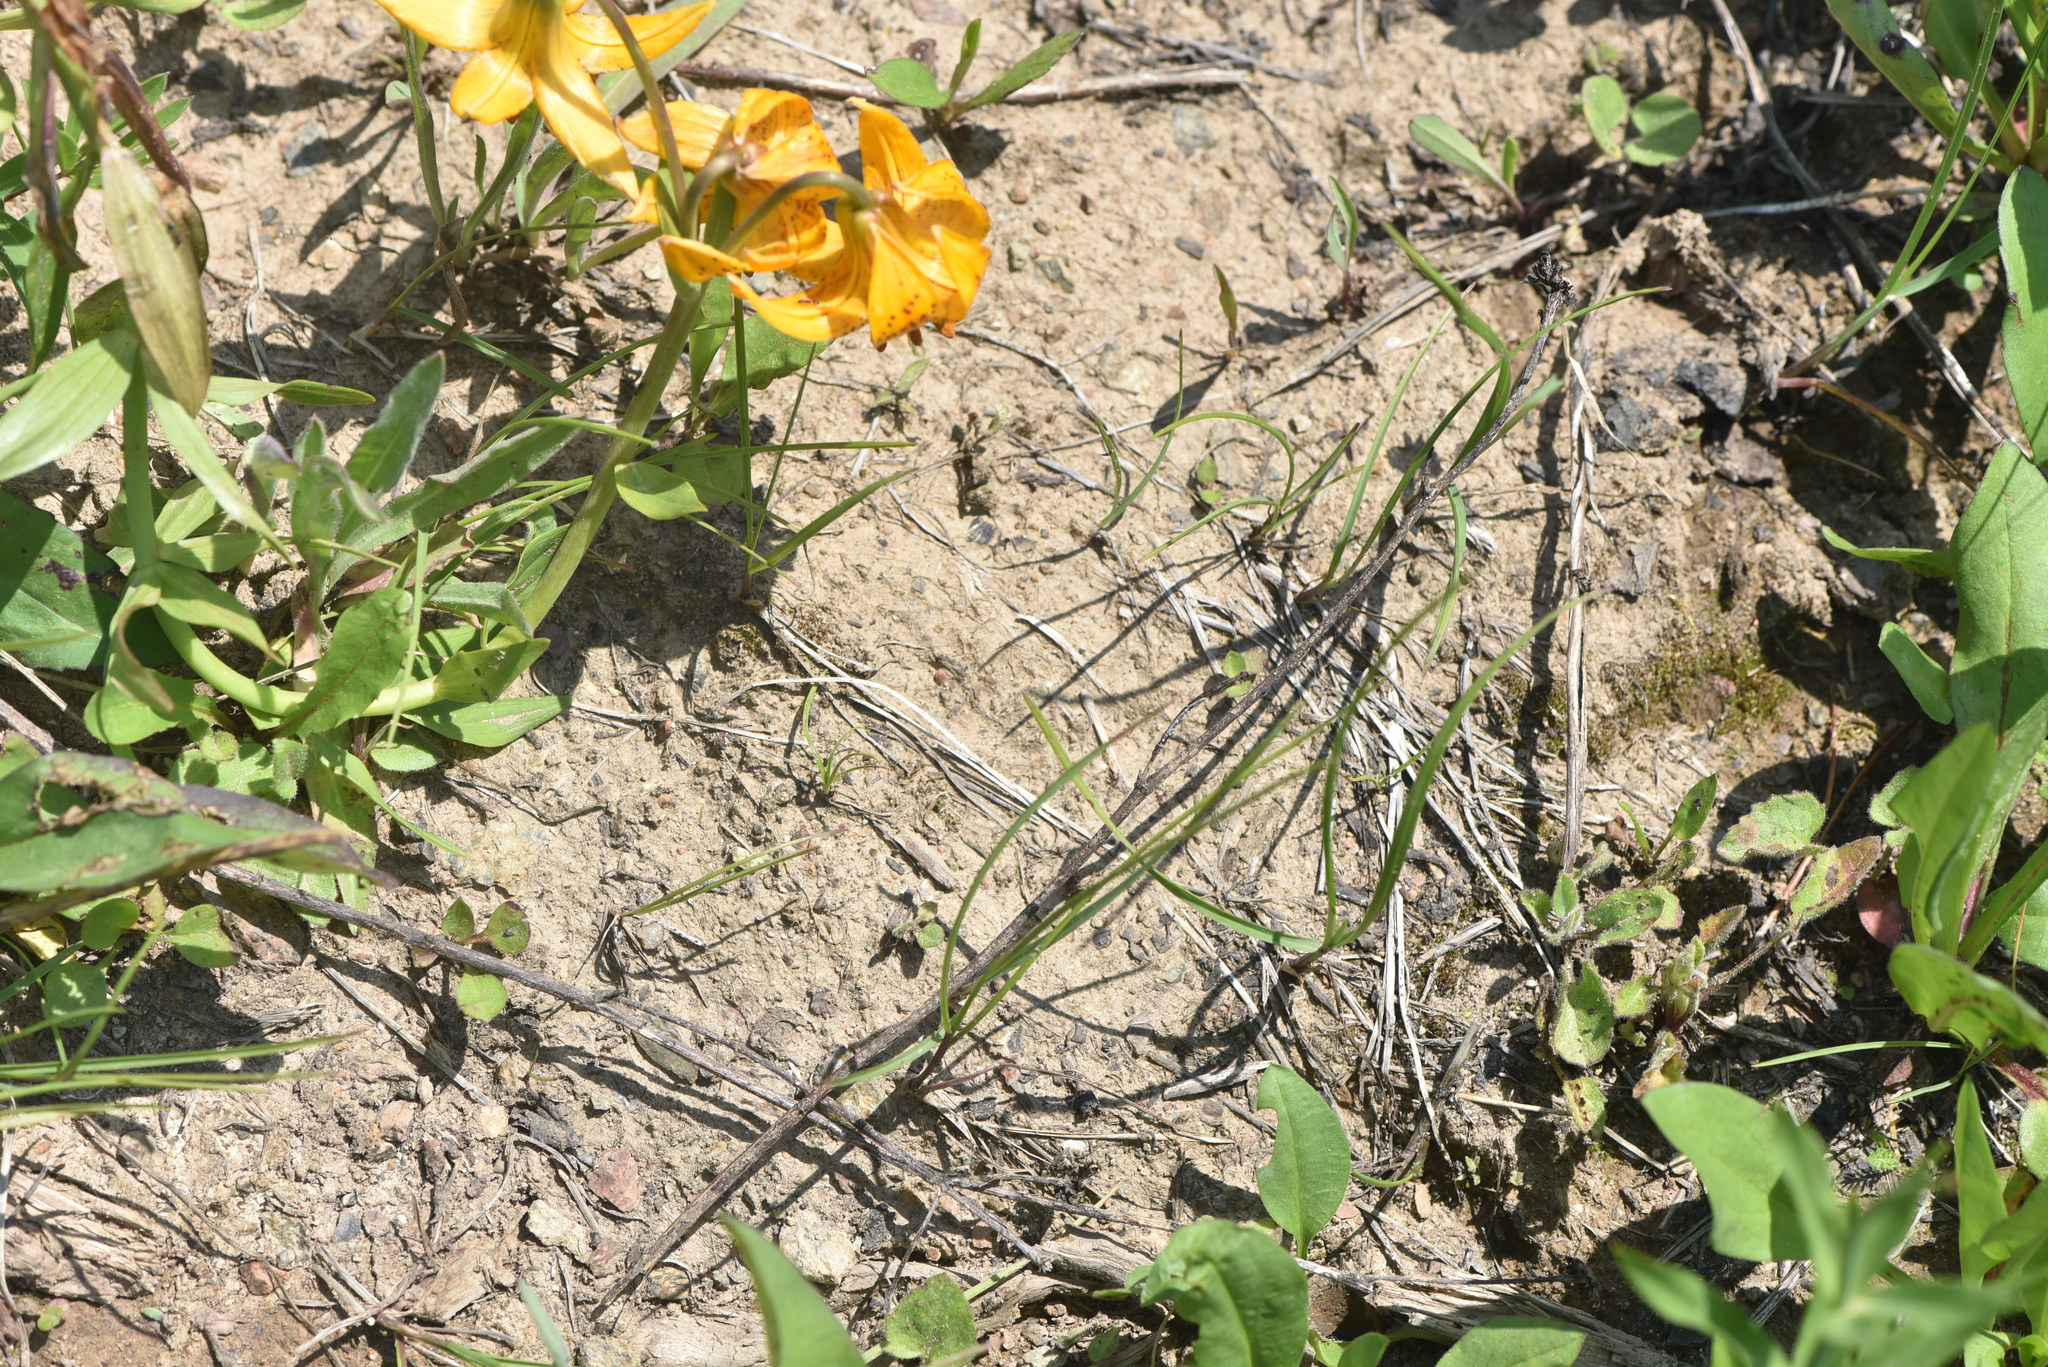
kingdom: Plantae
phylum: Tracheophyta
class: Liliopsida
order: Liliales
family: Liliaceae
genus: Lilium
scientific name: Lilium columbianum
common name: Columbia lily
